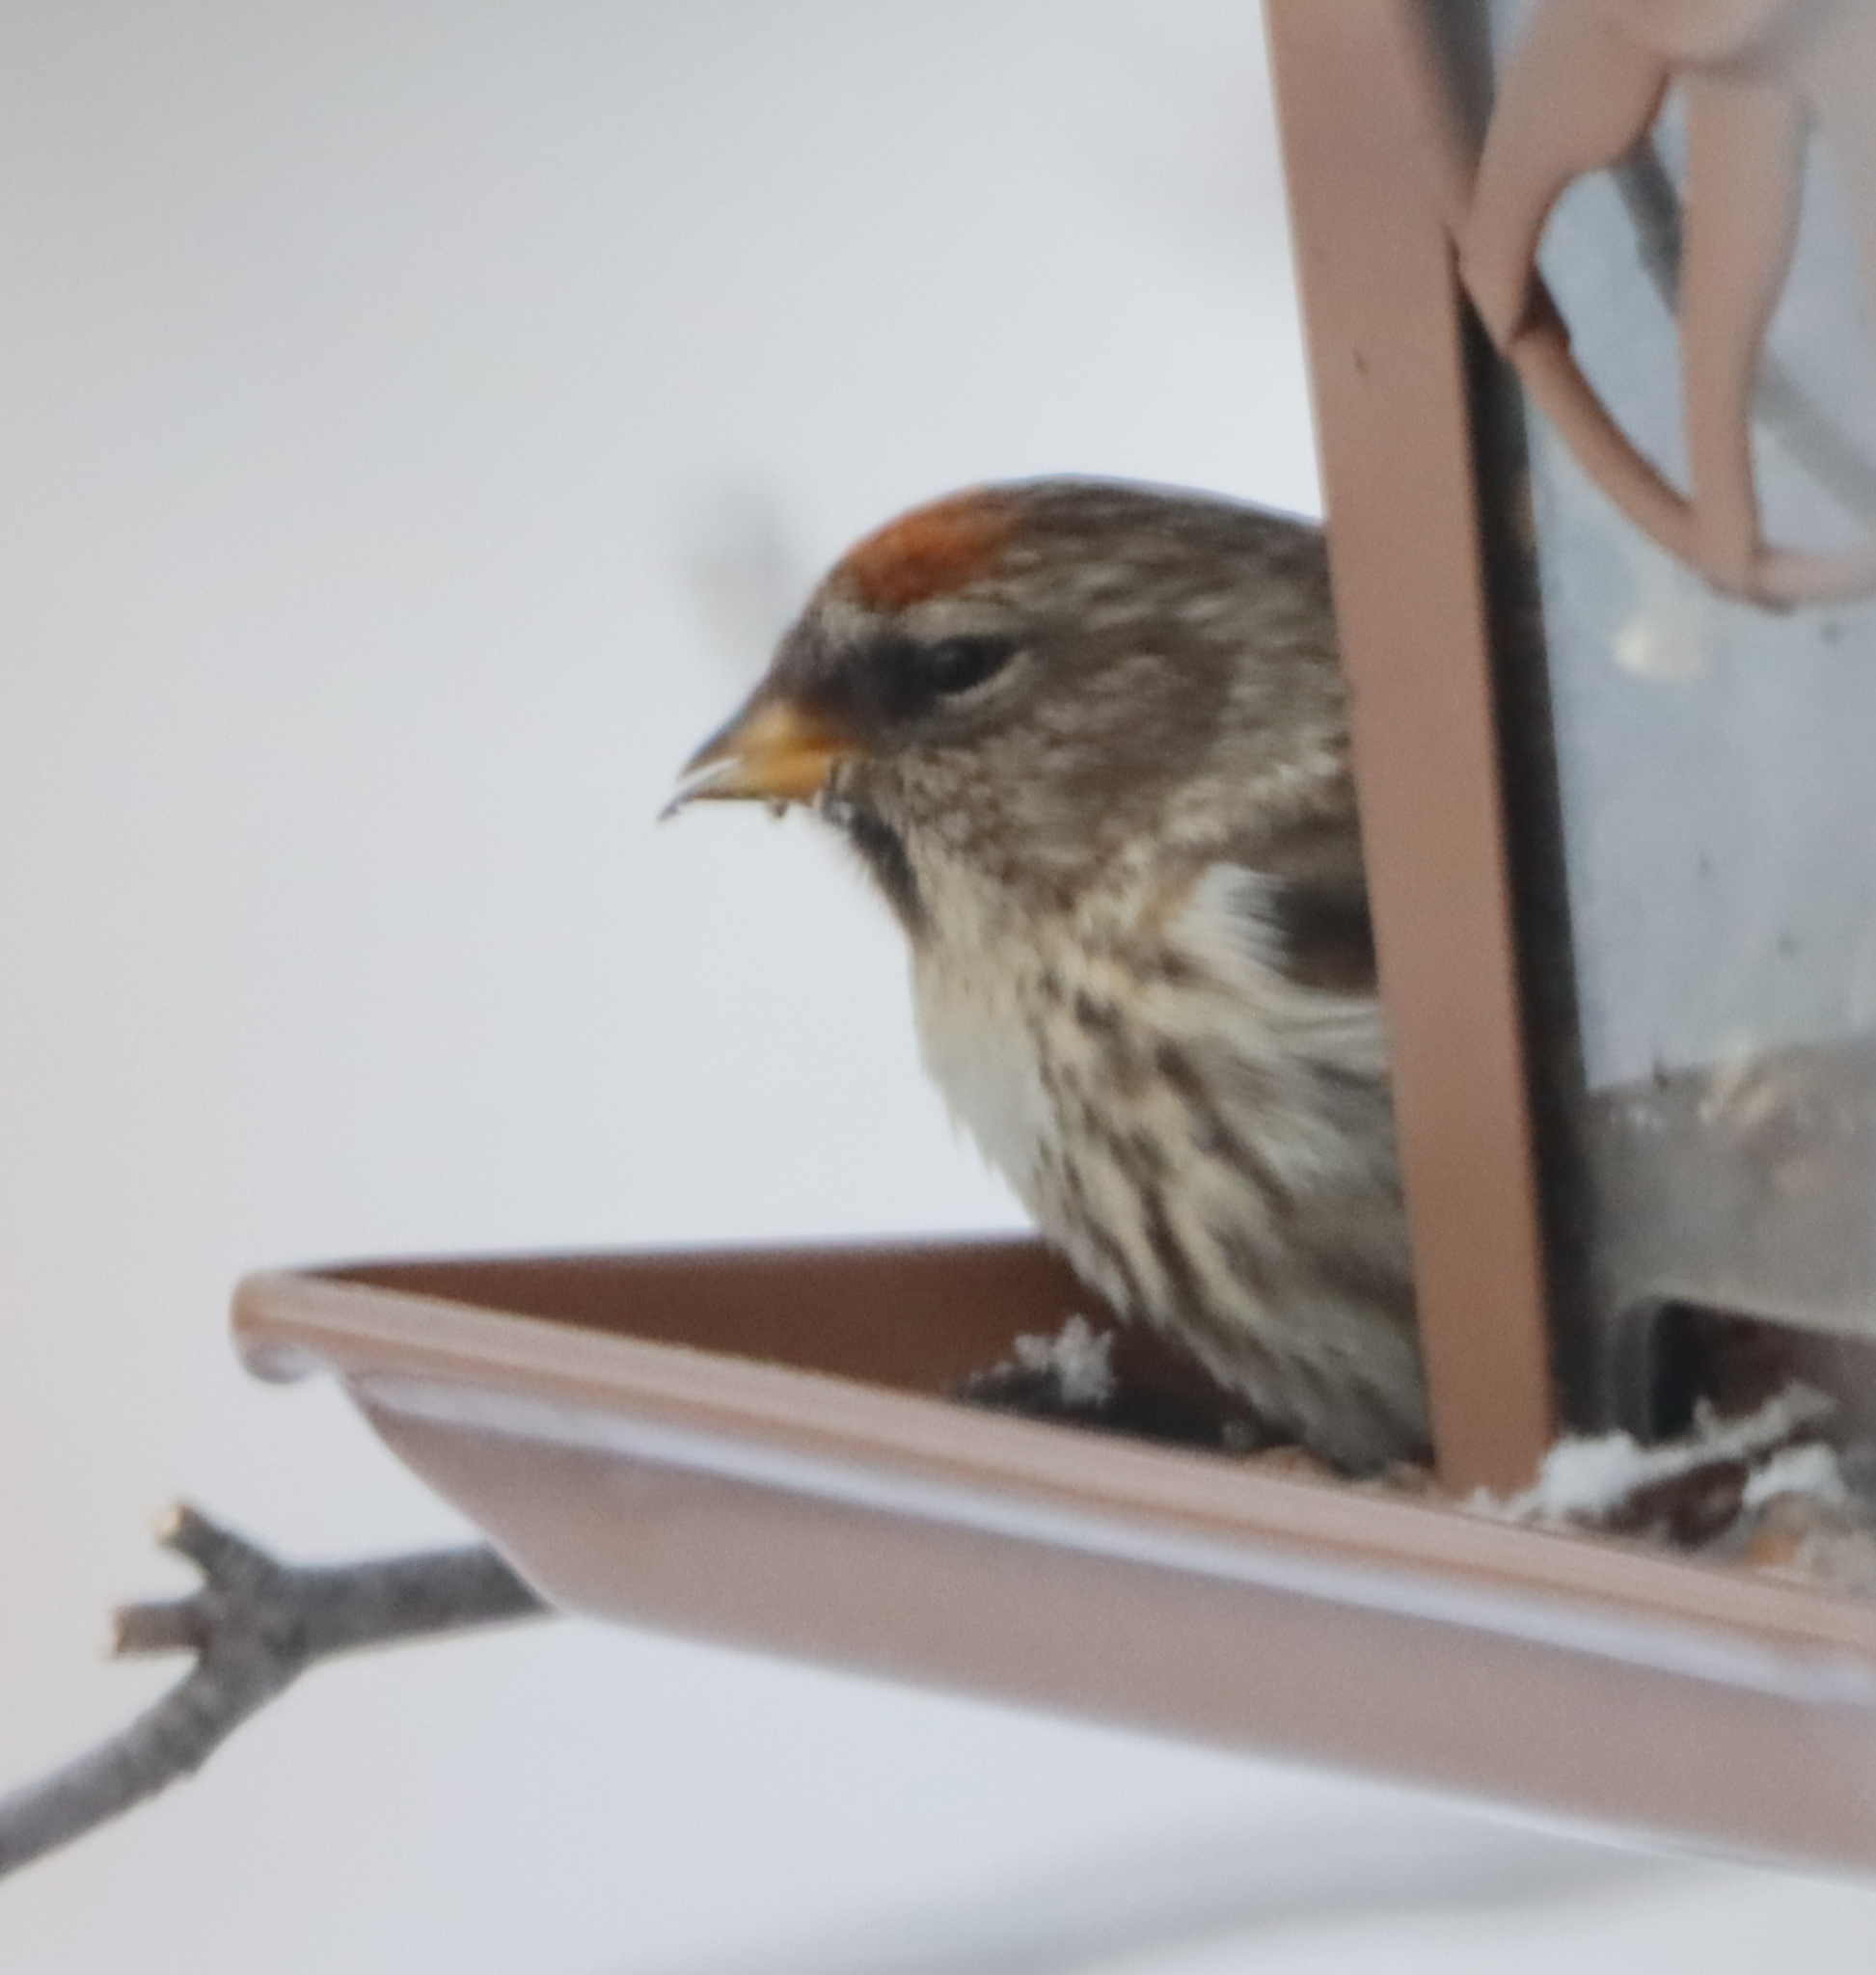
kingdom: Animalia
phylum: Chordata
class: Aves
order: Passeriformes
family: Fringillidae
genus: Acanthis
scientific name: Acanthis flammea
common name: Common redpoll
